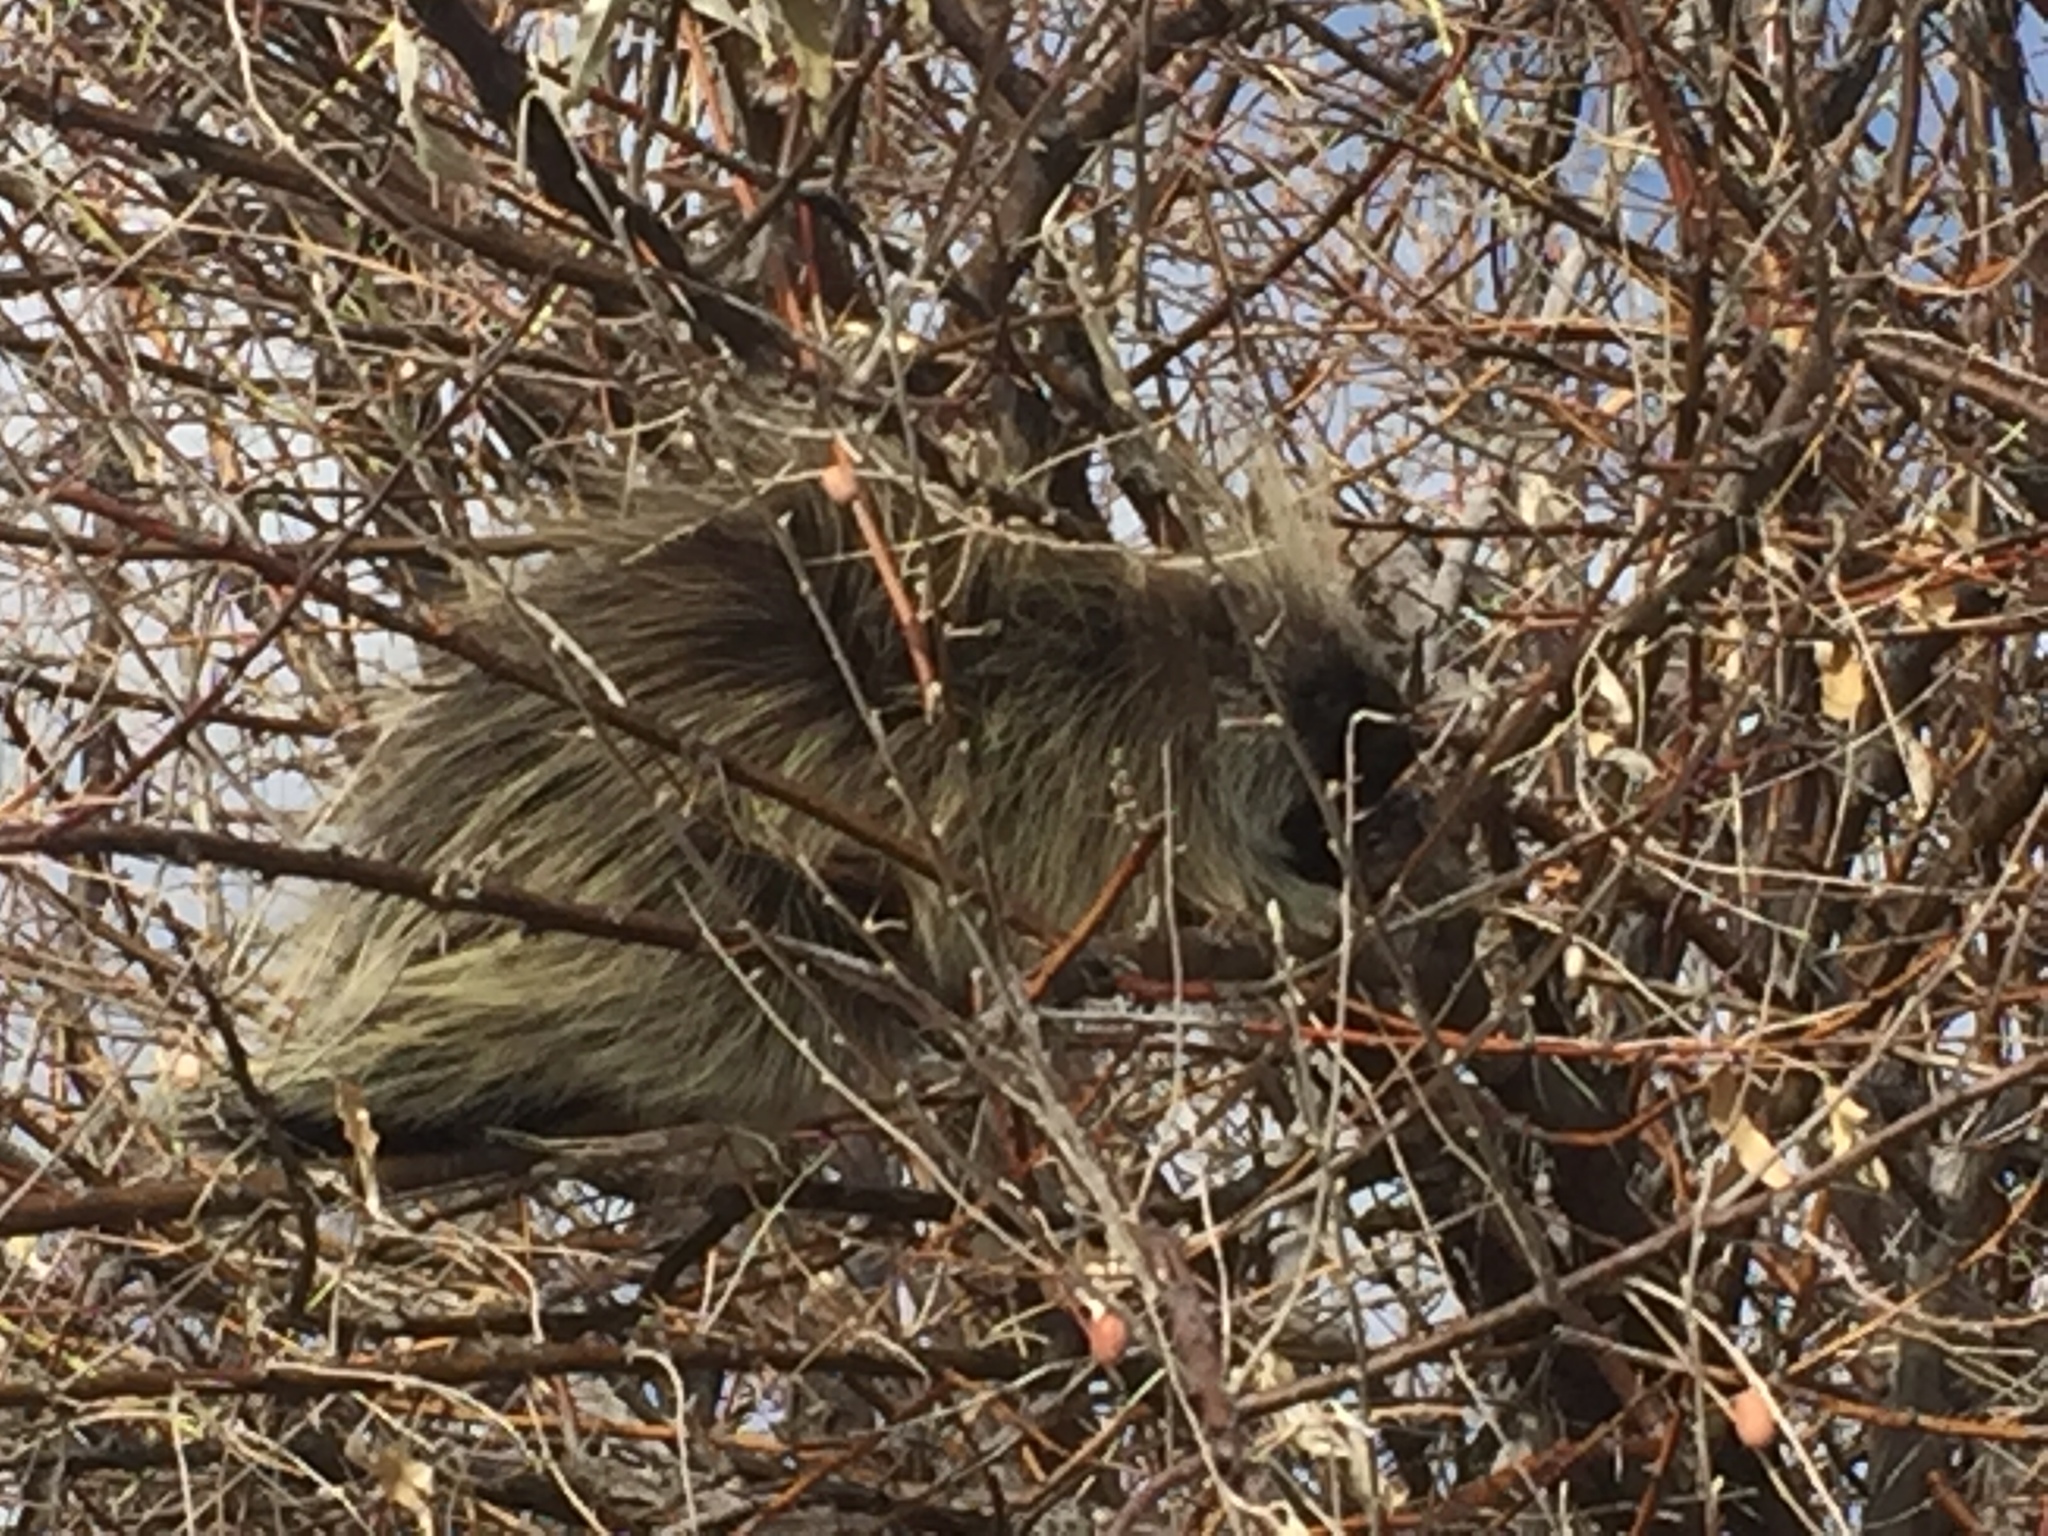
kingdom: Animalia
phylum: Chordata
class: Mammalia
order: Rodentia
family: Erethizontidae
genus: Erethizon
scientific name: Erethizon dorsatus
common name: North american porcupine
